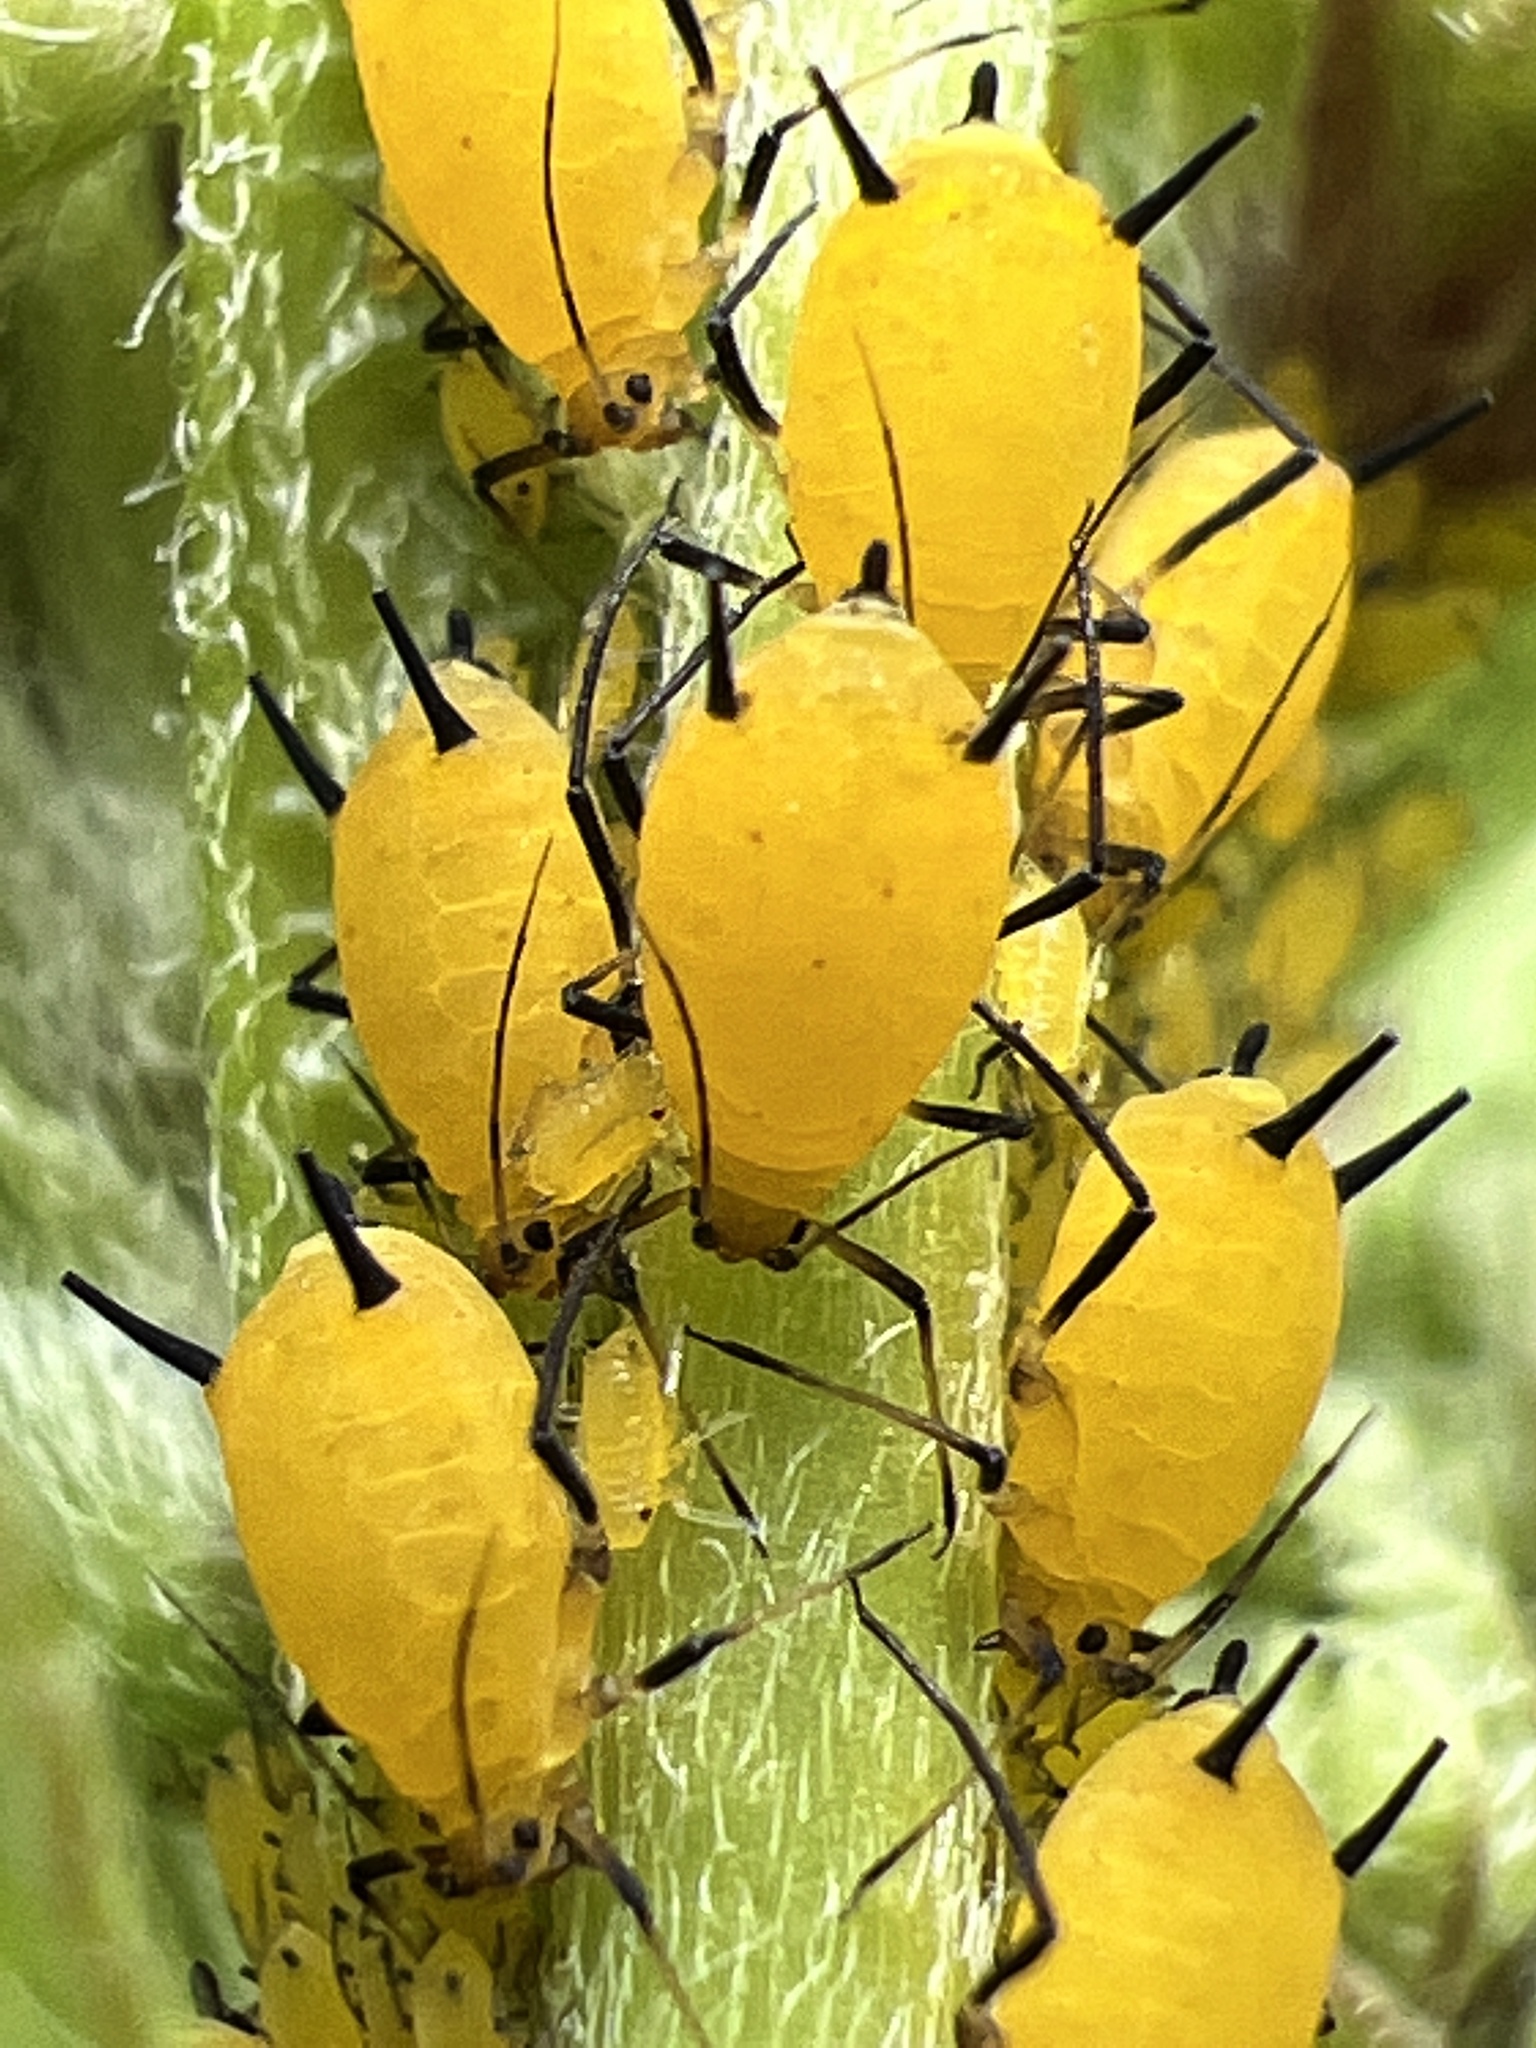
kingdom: Animalia
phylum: Arthropoda
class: Insecta
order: Hemiptera
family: Aphididae
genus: Aphis
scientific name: Aphis nerii
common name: Oleander aphid
